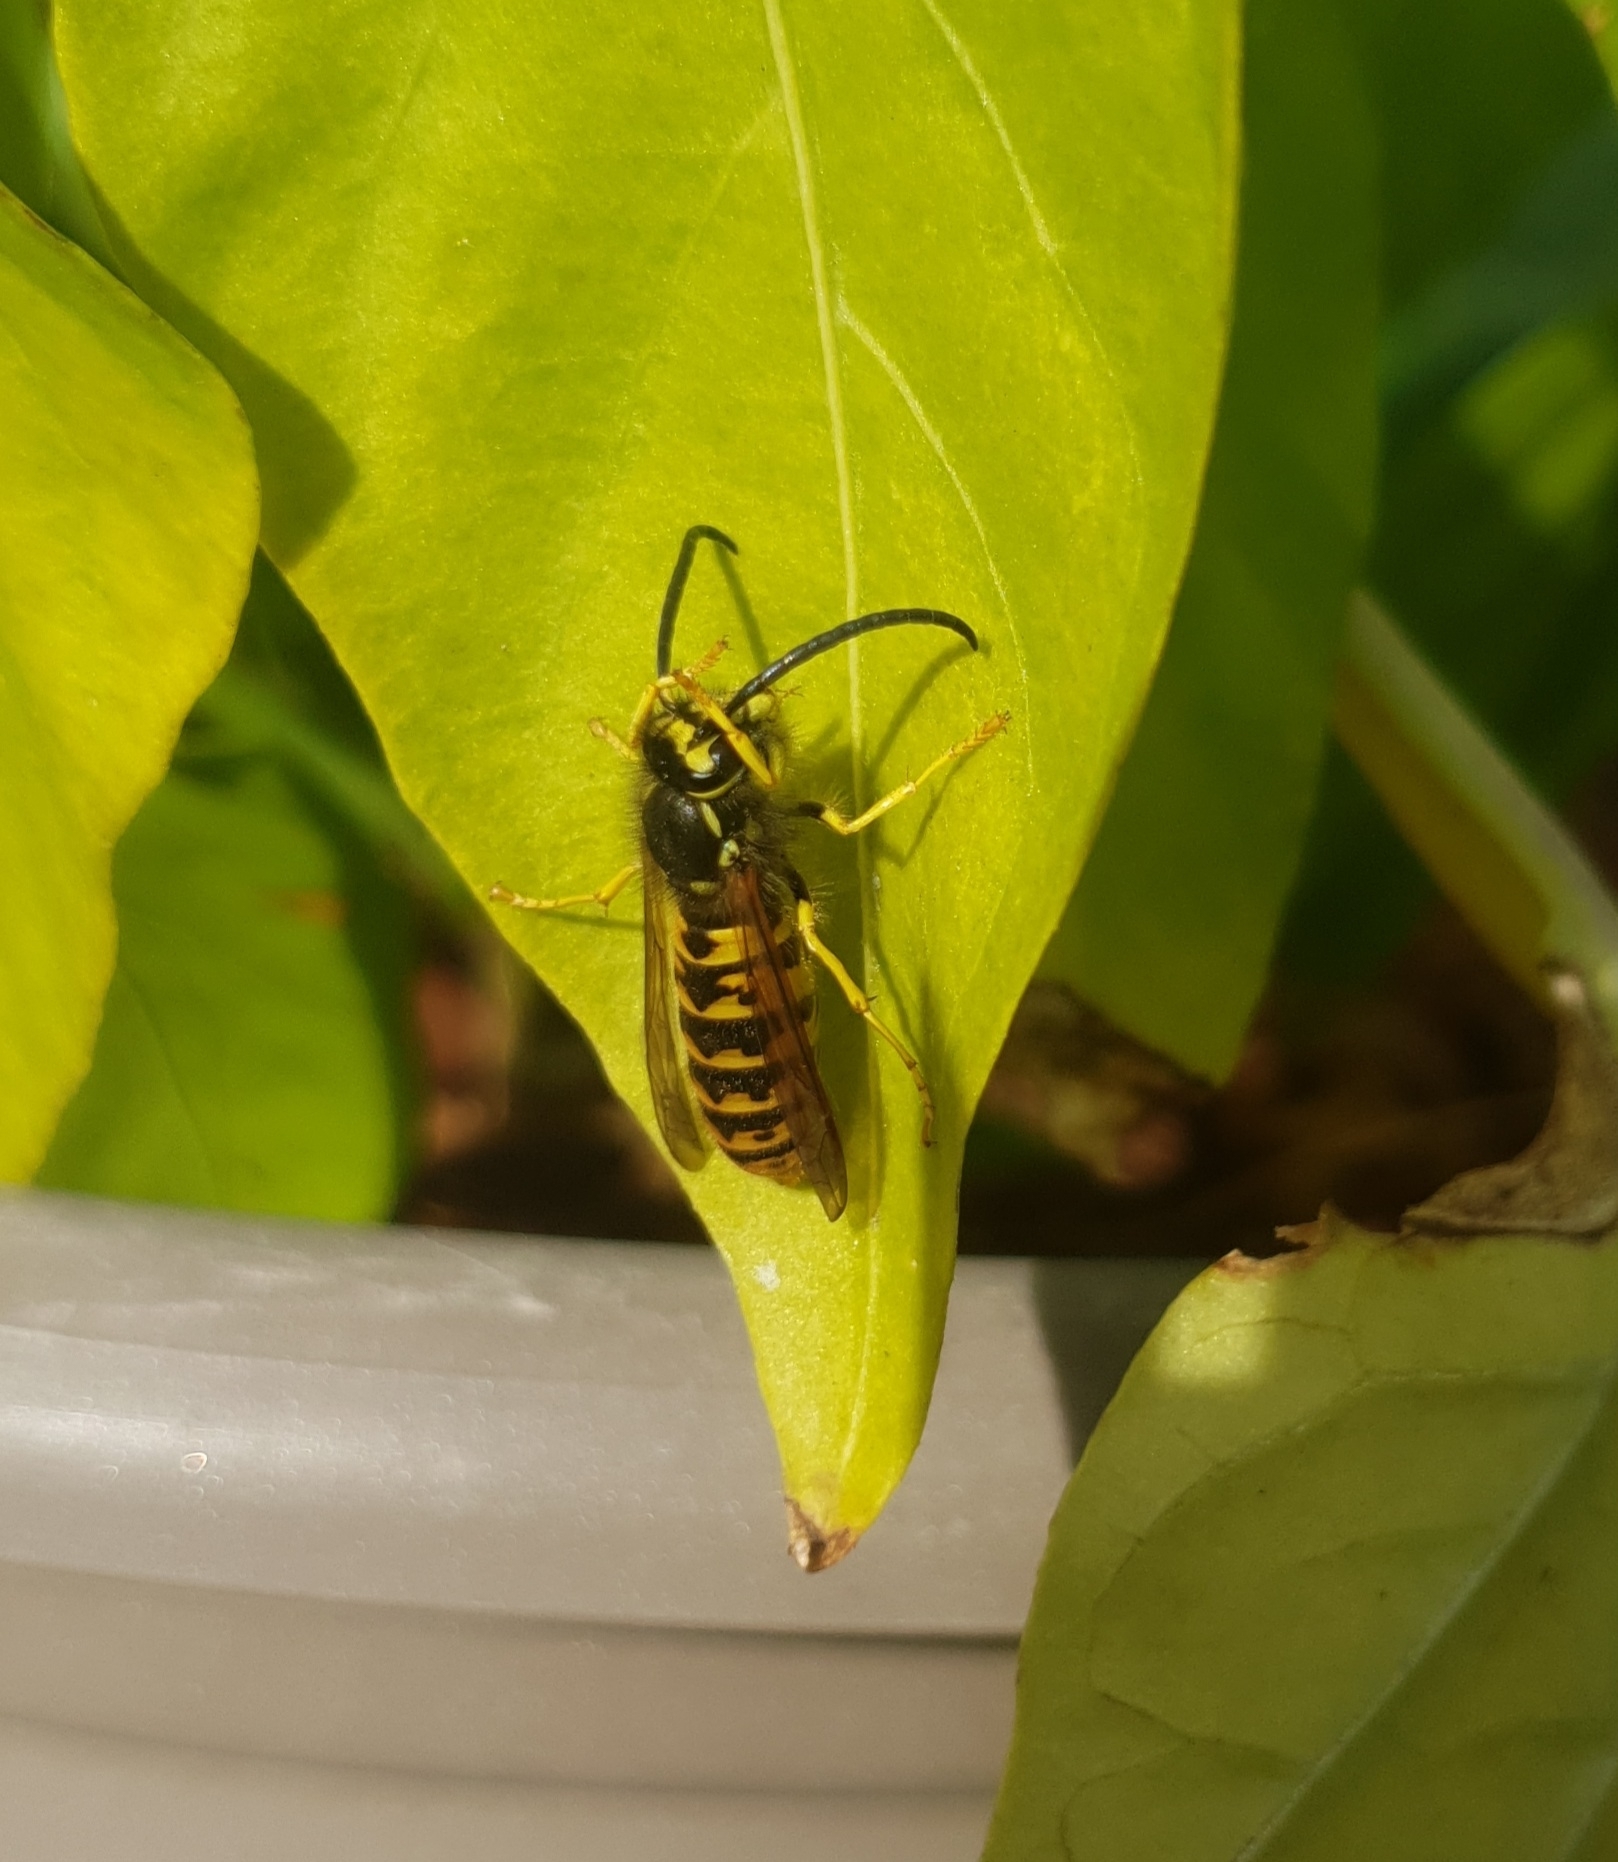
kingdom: Animalia
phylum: Arthropoda
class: Insecta
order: Hymenoptera
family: Vespidae
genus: Vespula
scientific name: Vespula germanica
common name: German wasp
